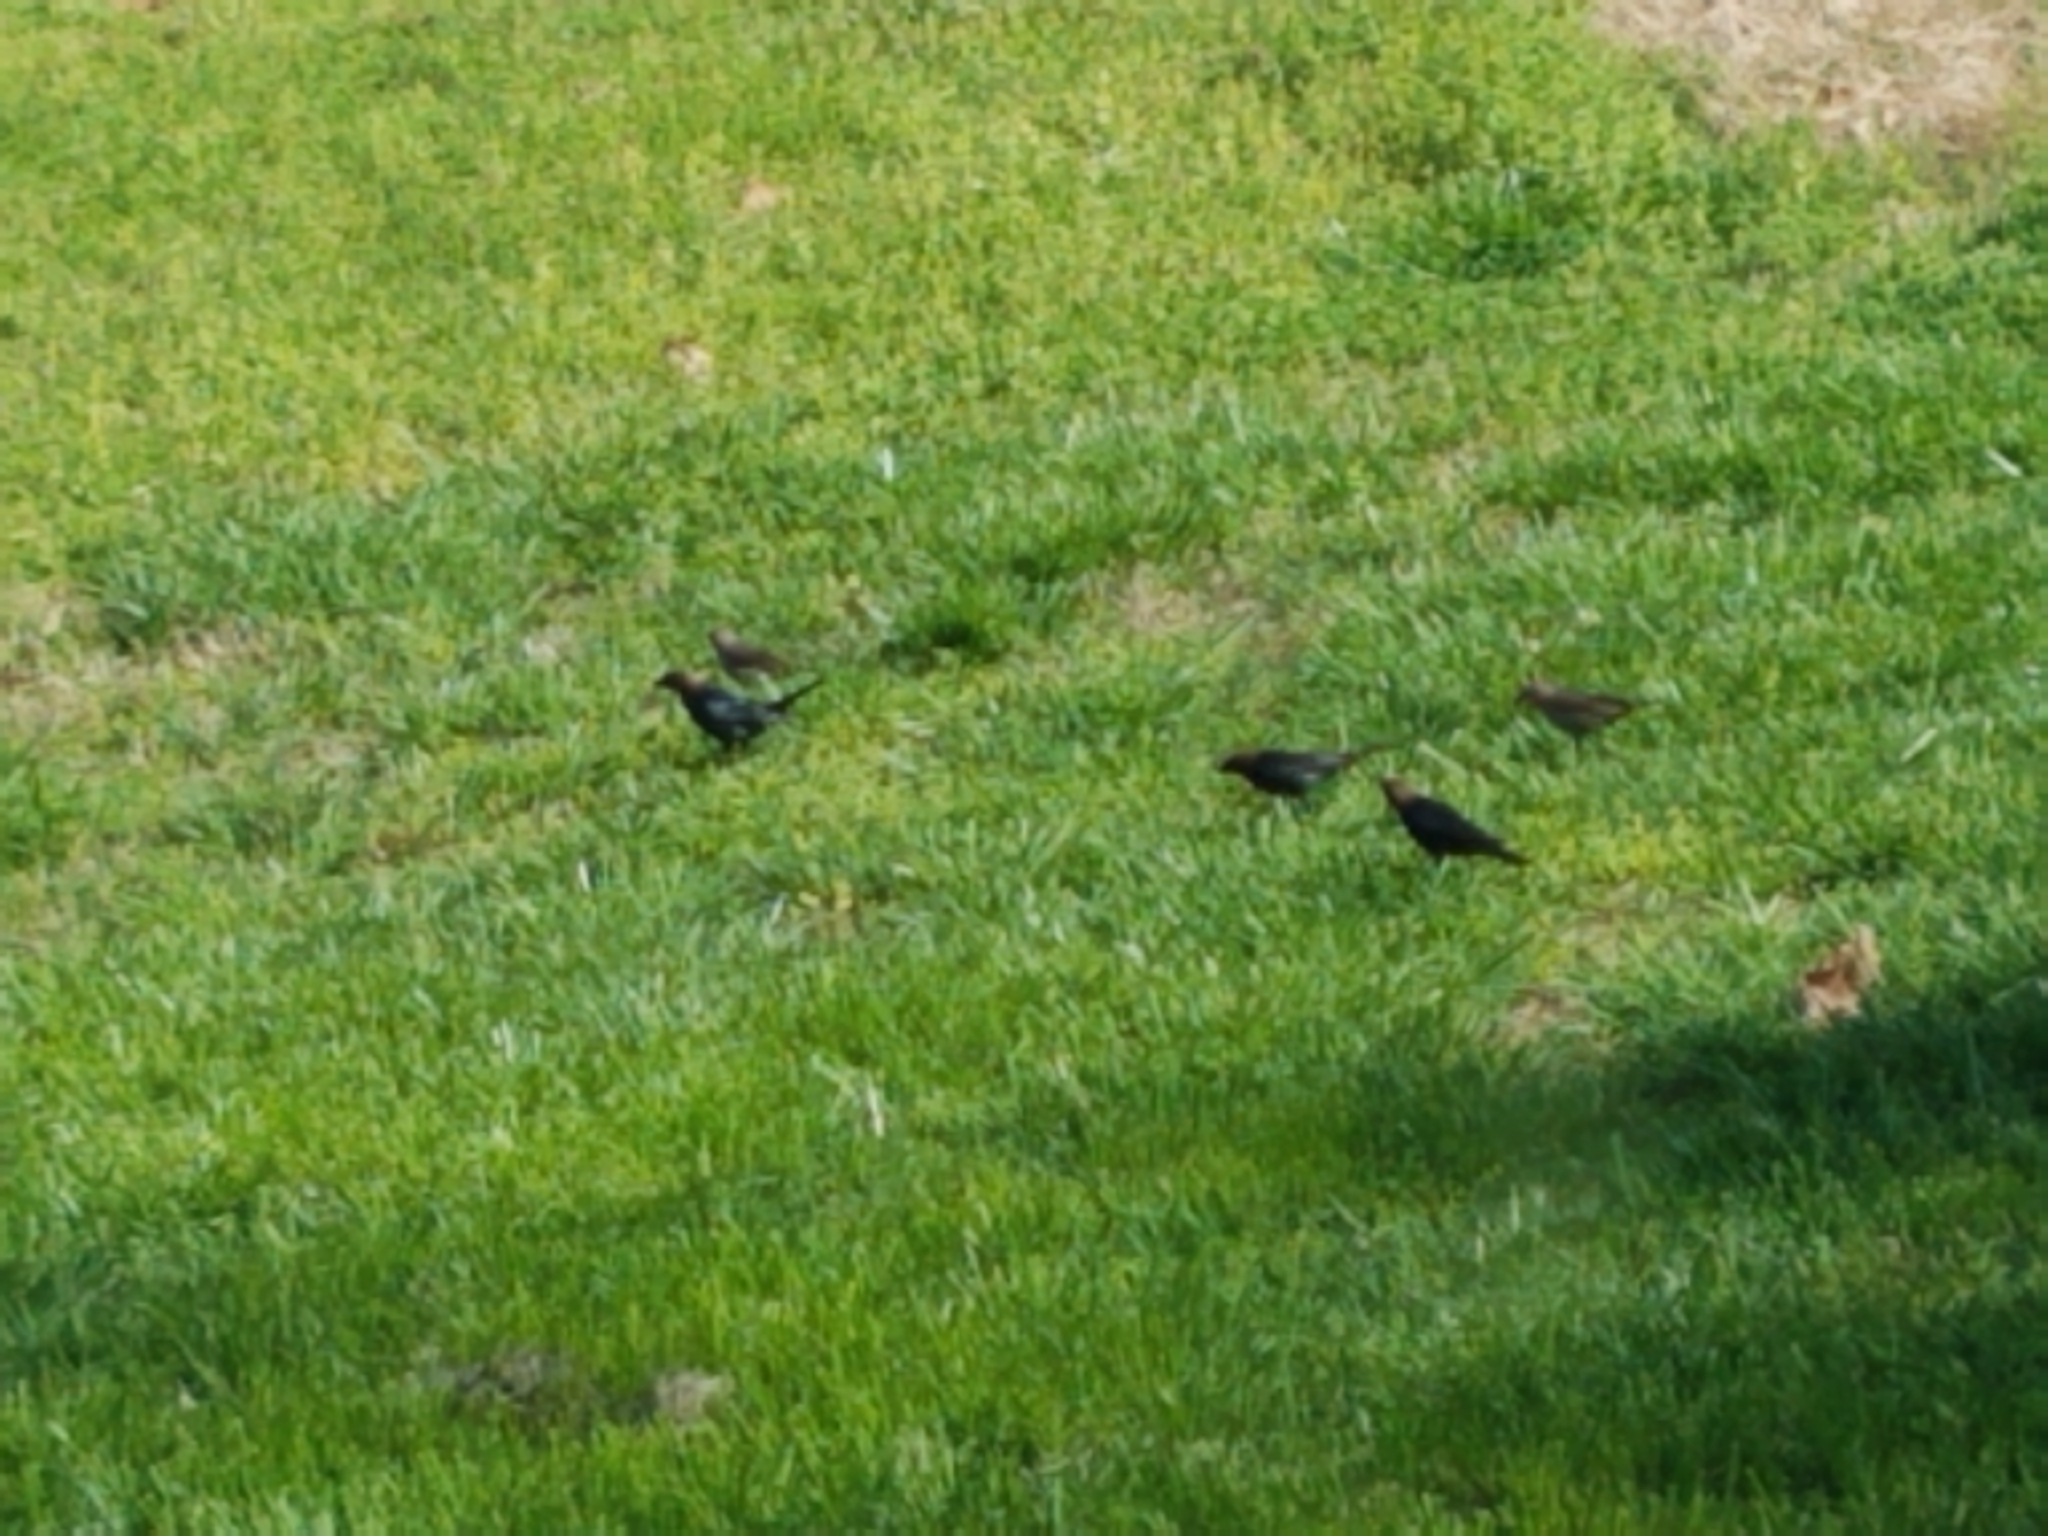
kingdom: Animalia
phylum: Chordata
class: Aves
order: Passeriformes
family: Icteridae
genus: Molothrus
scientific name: Molothrus ater
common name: Brown-headed cowbird
